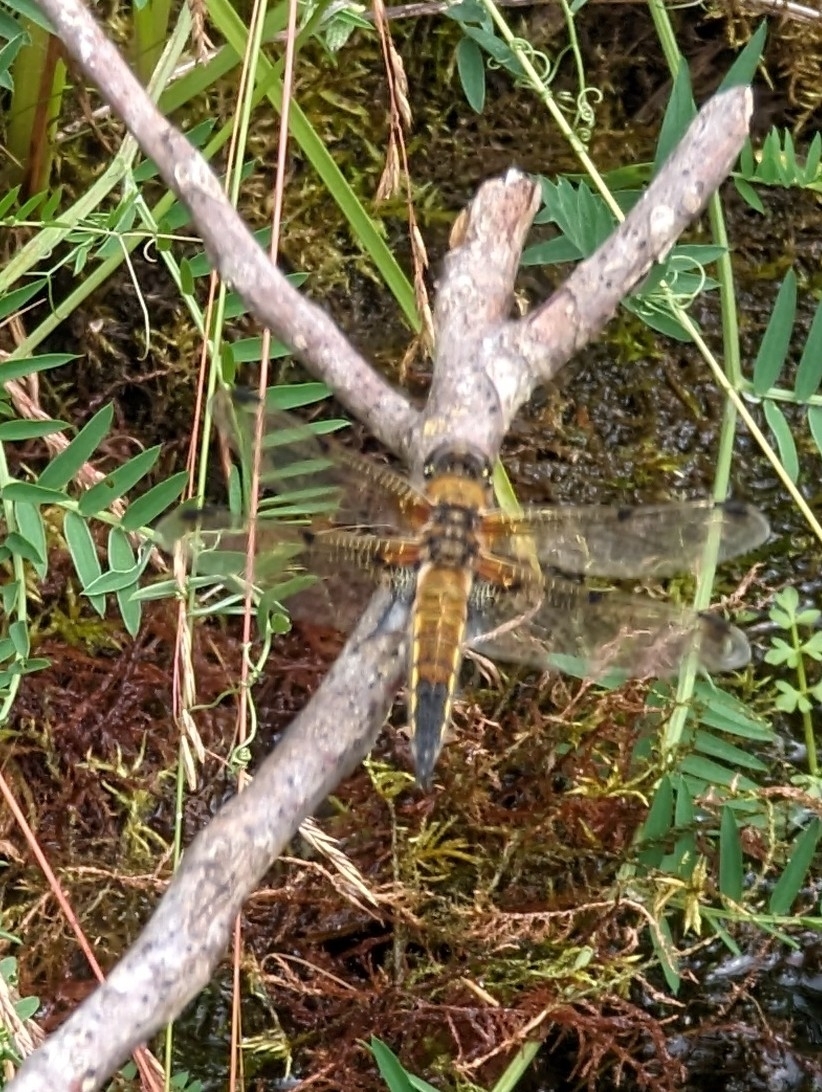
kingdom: Animalia
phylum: Arthropoda
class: Insecta
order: Odonata
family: Libellulidae
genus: Libellula
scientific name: Libellula quadrimaculata
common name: Four-spotted chaser
